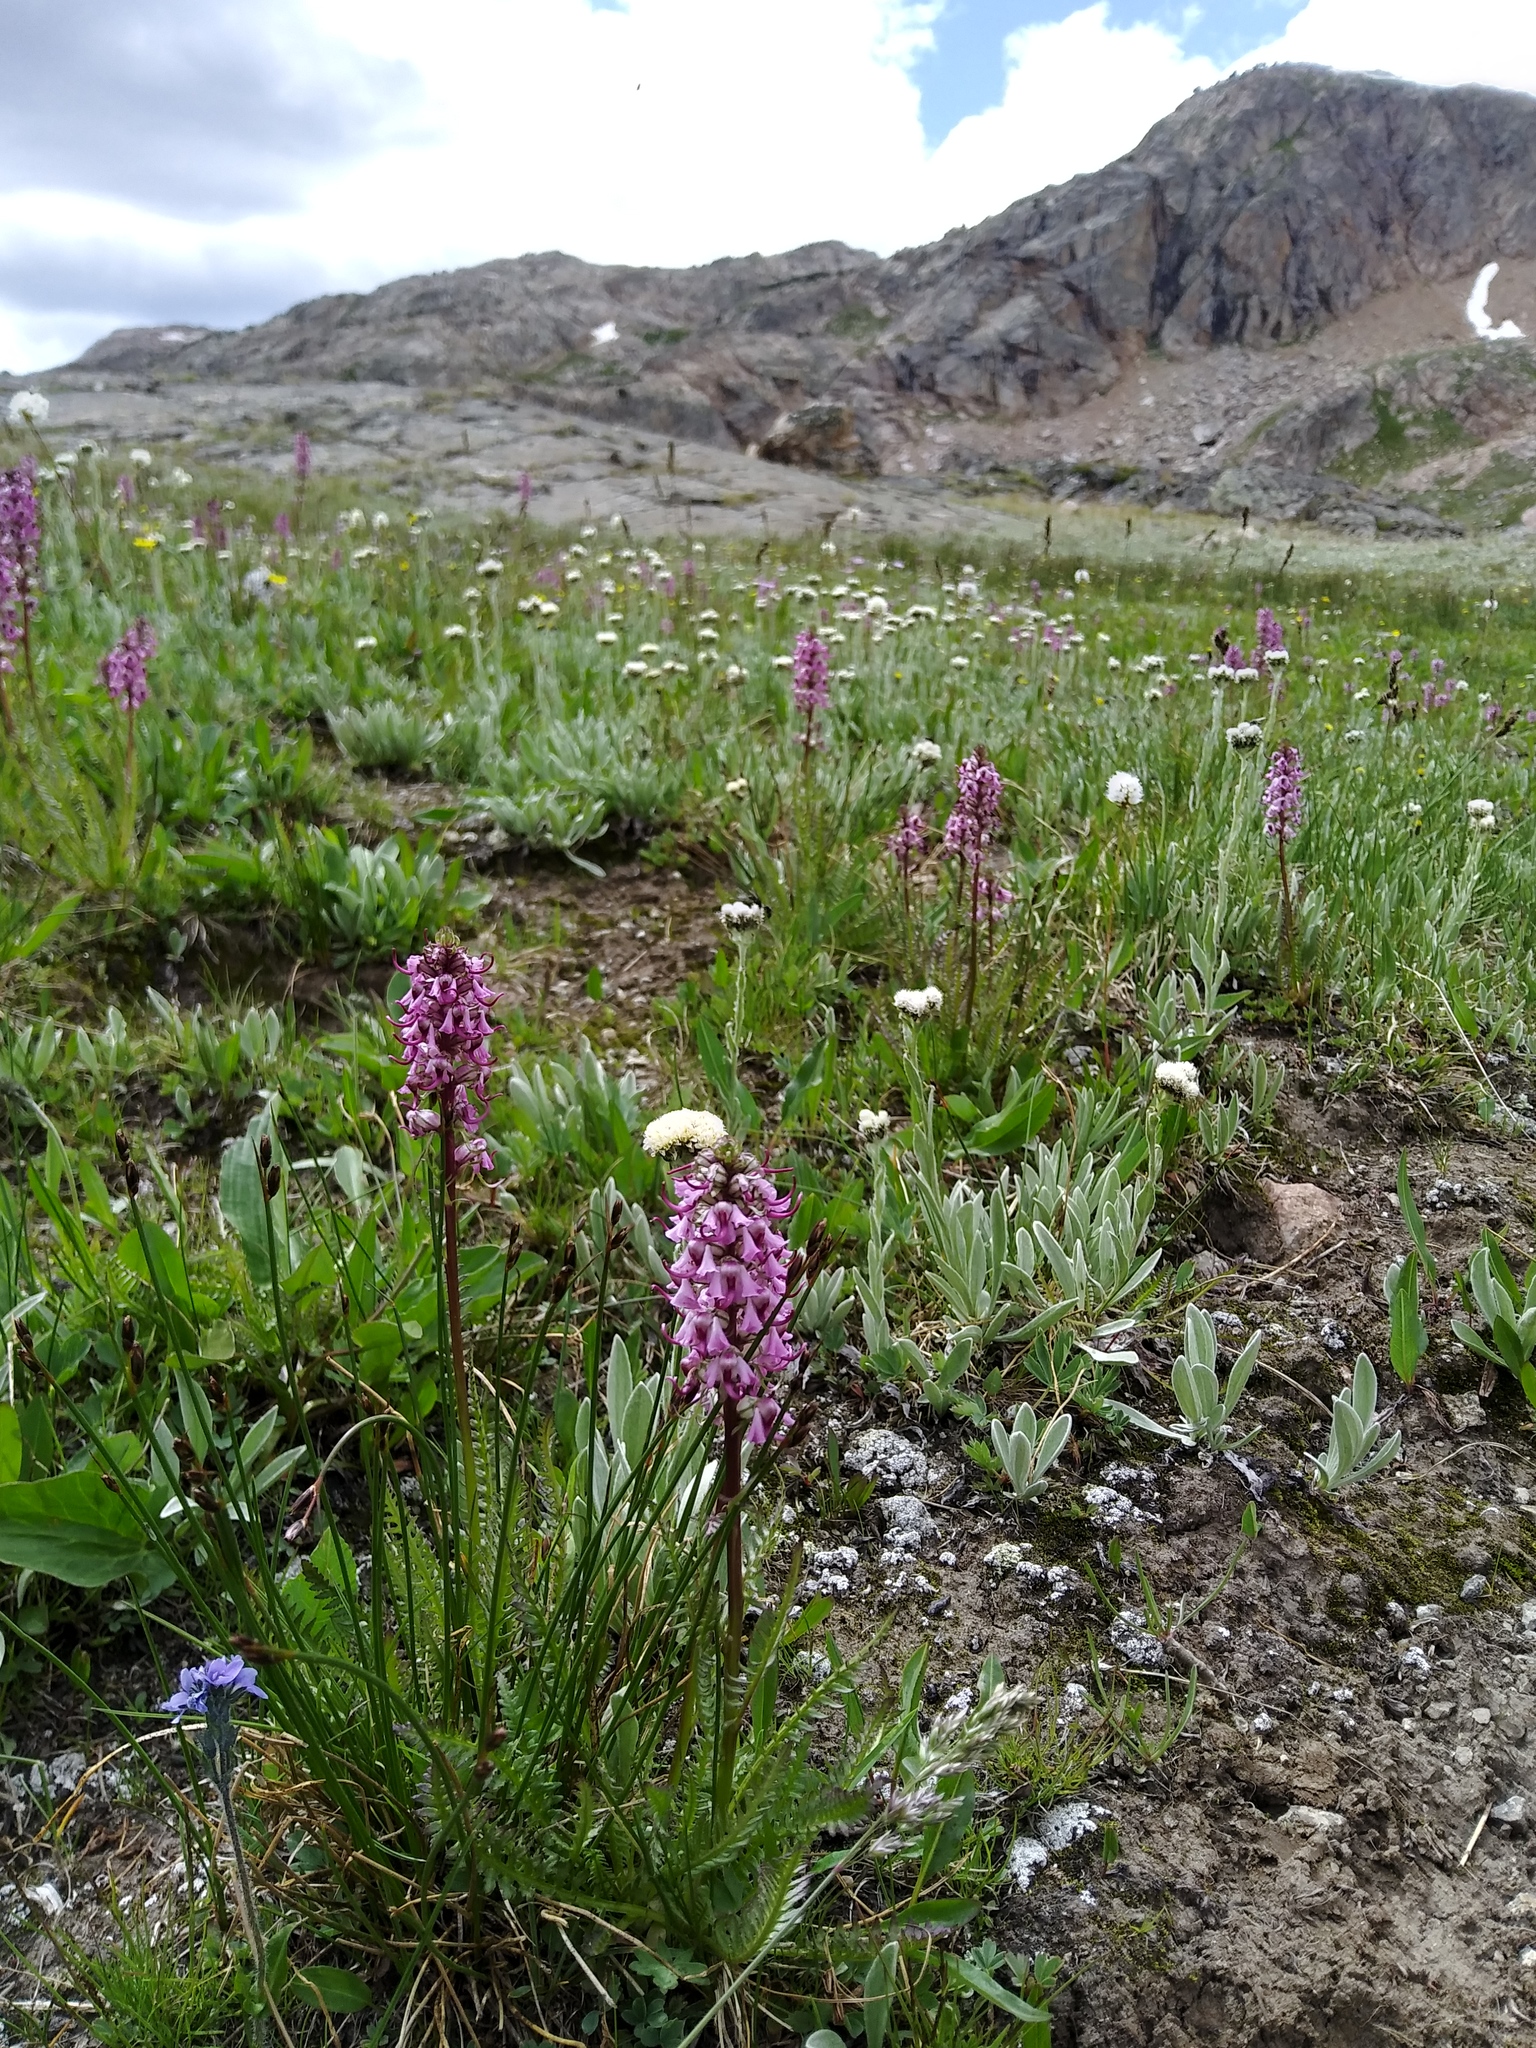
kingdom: Plantae
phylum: Tracheophyta
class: Magnoliopsida
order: Lamiales
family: Orobanchaceae
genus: Pedicularis
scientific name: Pedicularis groenlandica
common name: Elephant's-head
